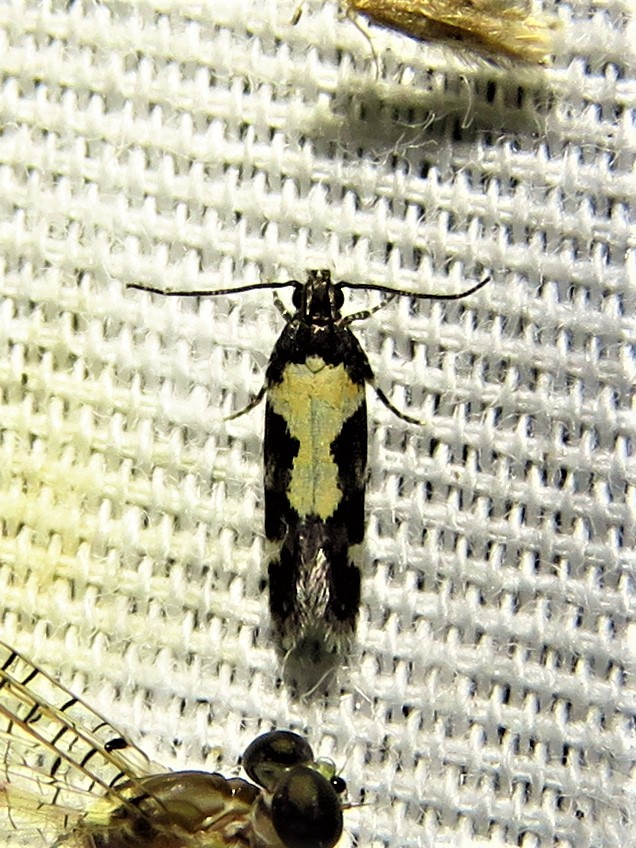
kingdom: Animalia
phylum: Arthropoda
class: Insecta
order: Lepidoptera
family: Gelechiidae
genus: Stegasta
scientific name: Stegasta bosqueella
